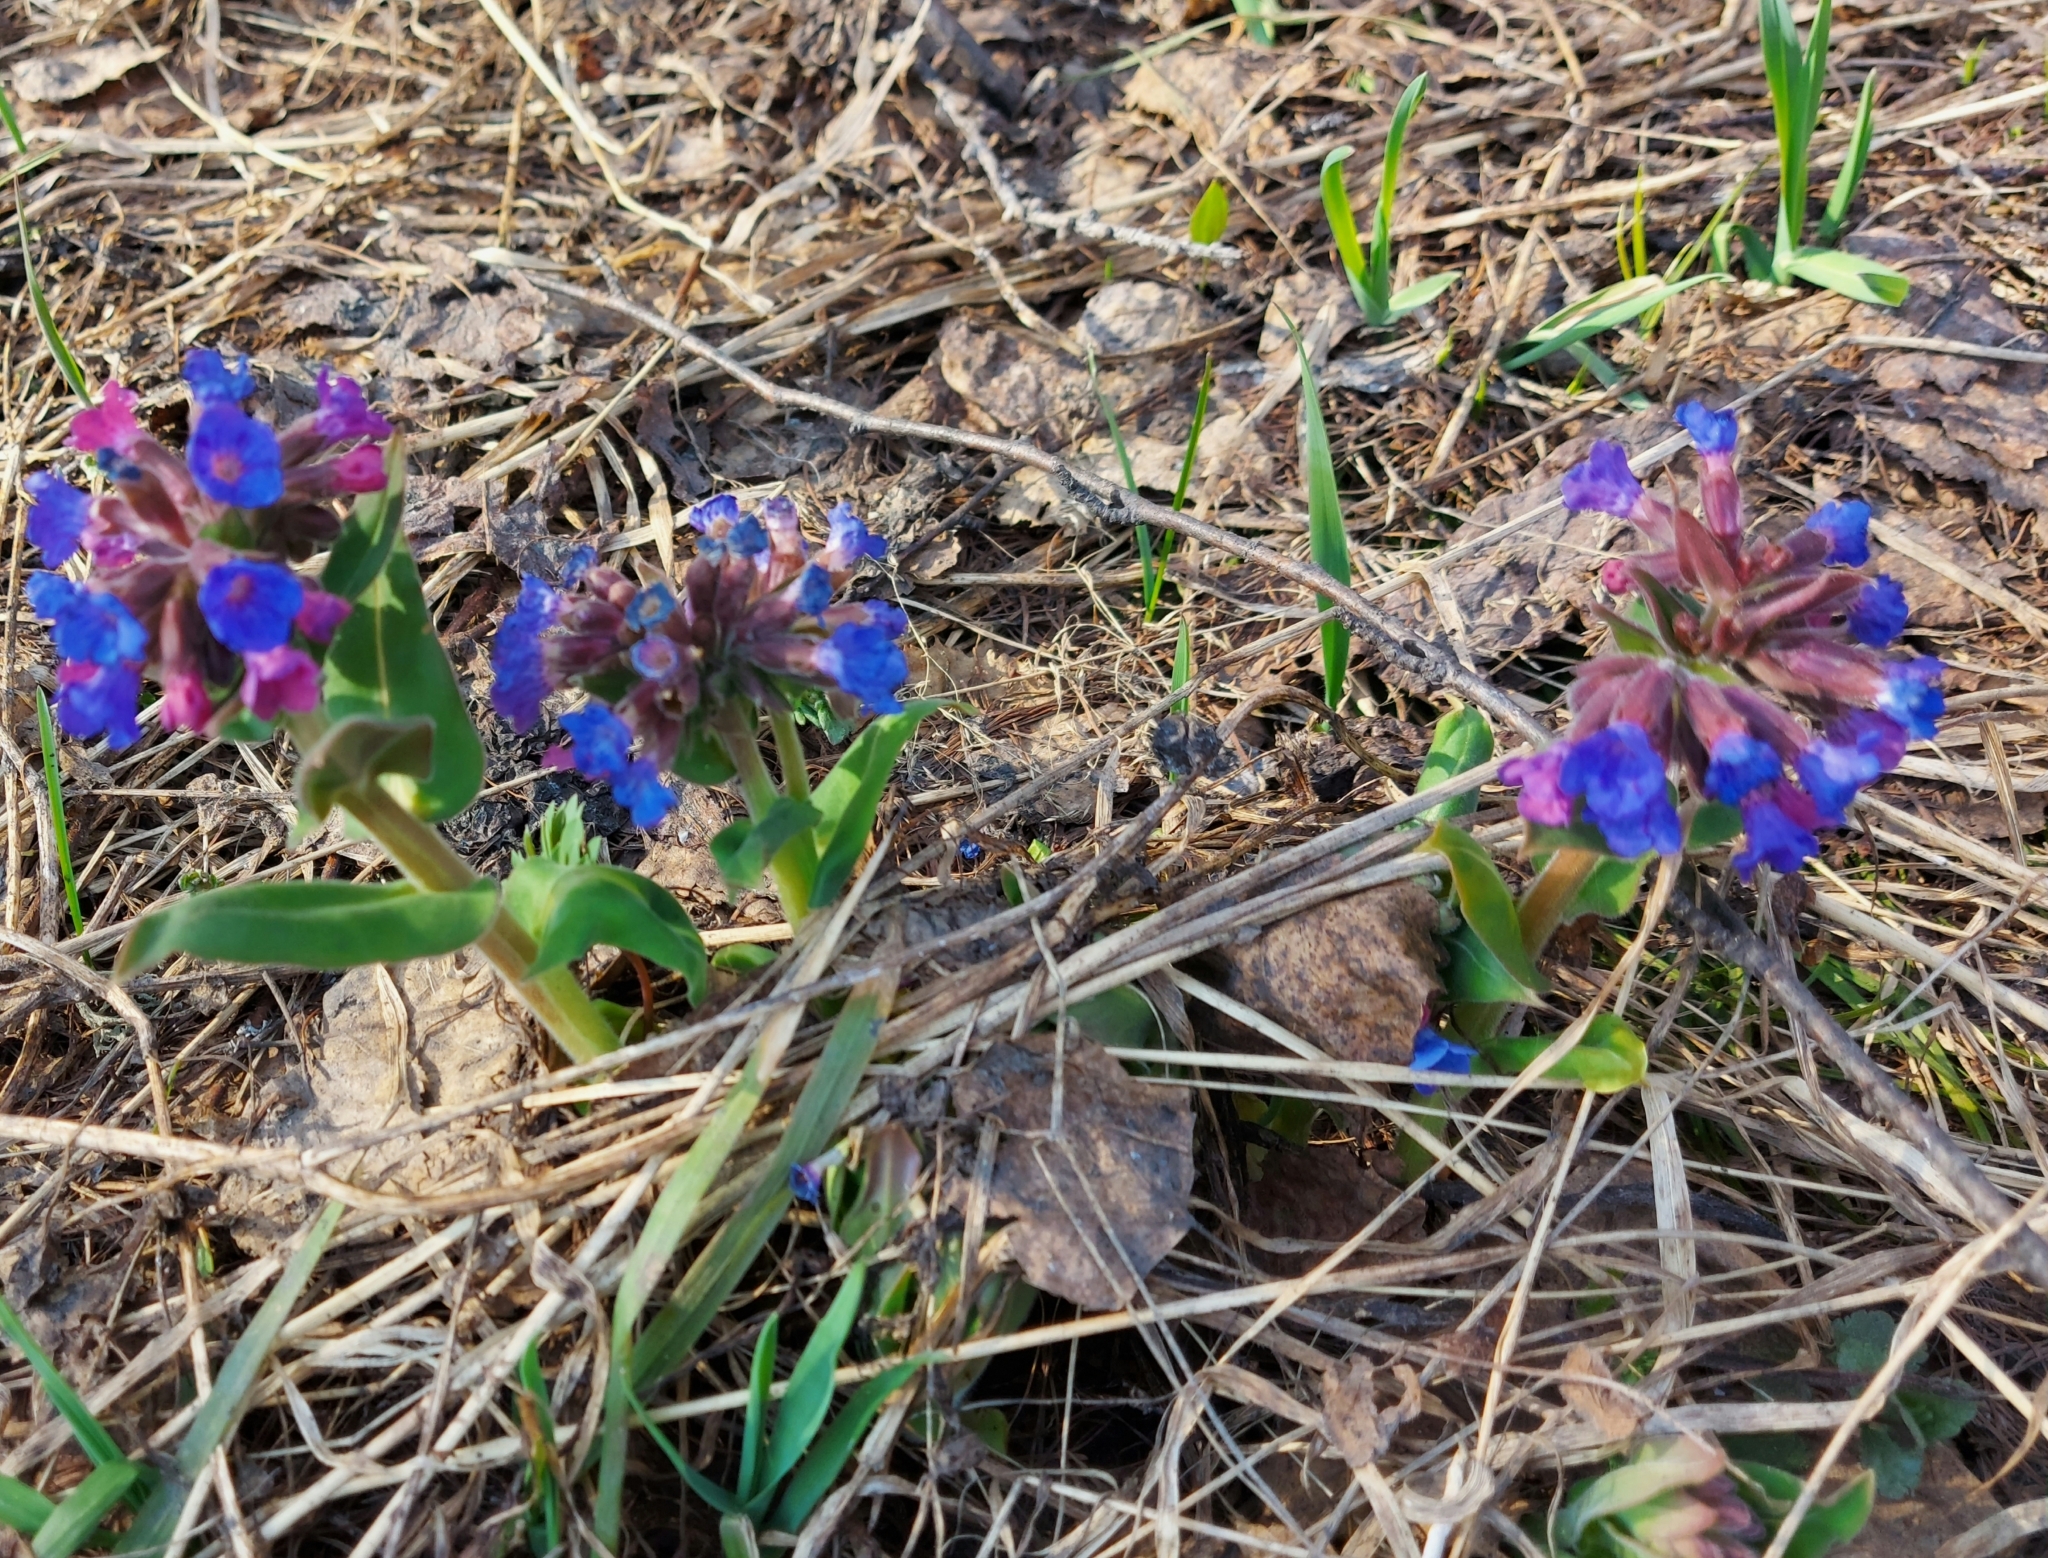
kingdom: Plantae
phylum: Tracheophyta
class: Magnoliopsida
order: Boraginales
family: Boraginaceae
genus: Pulmonaria
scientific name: Pulmonaria mollis
